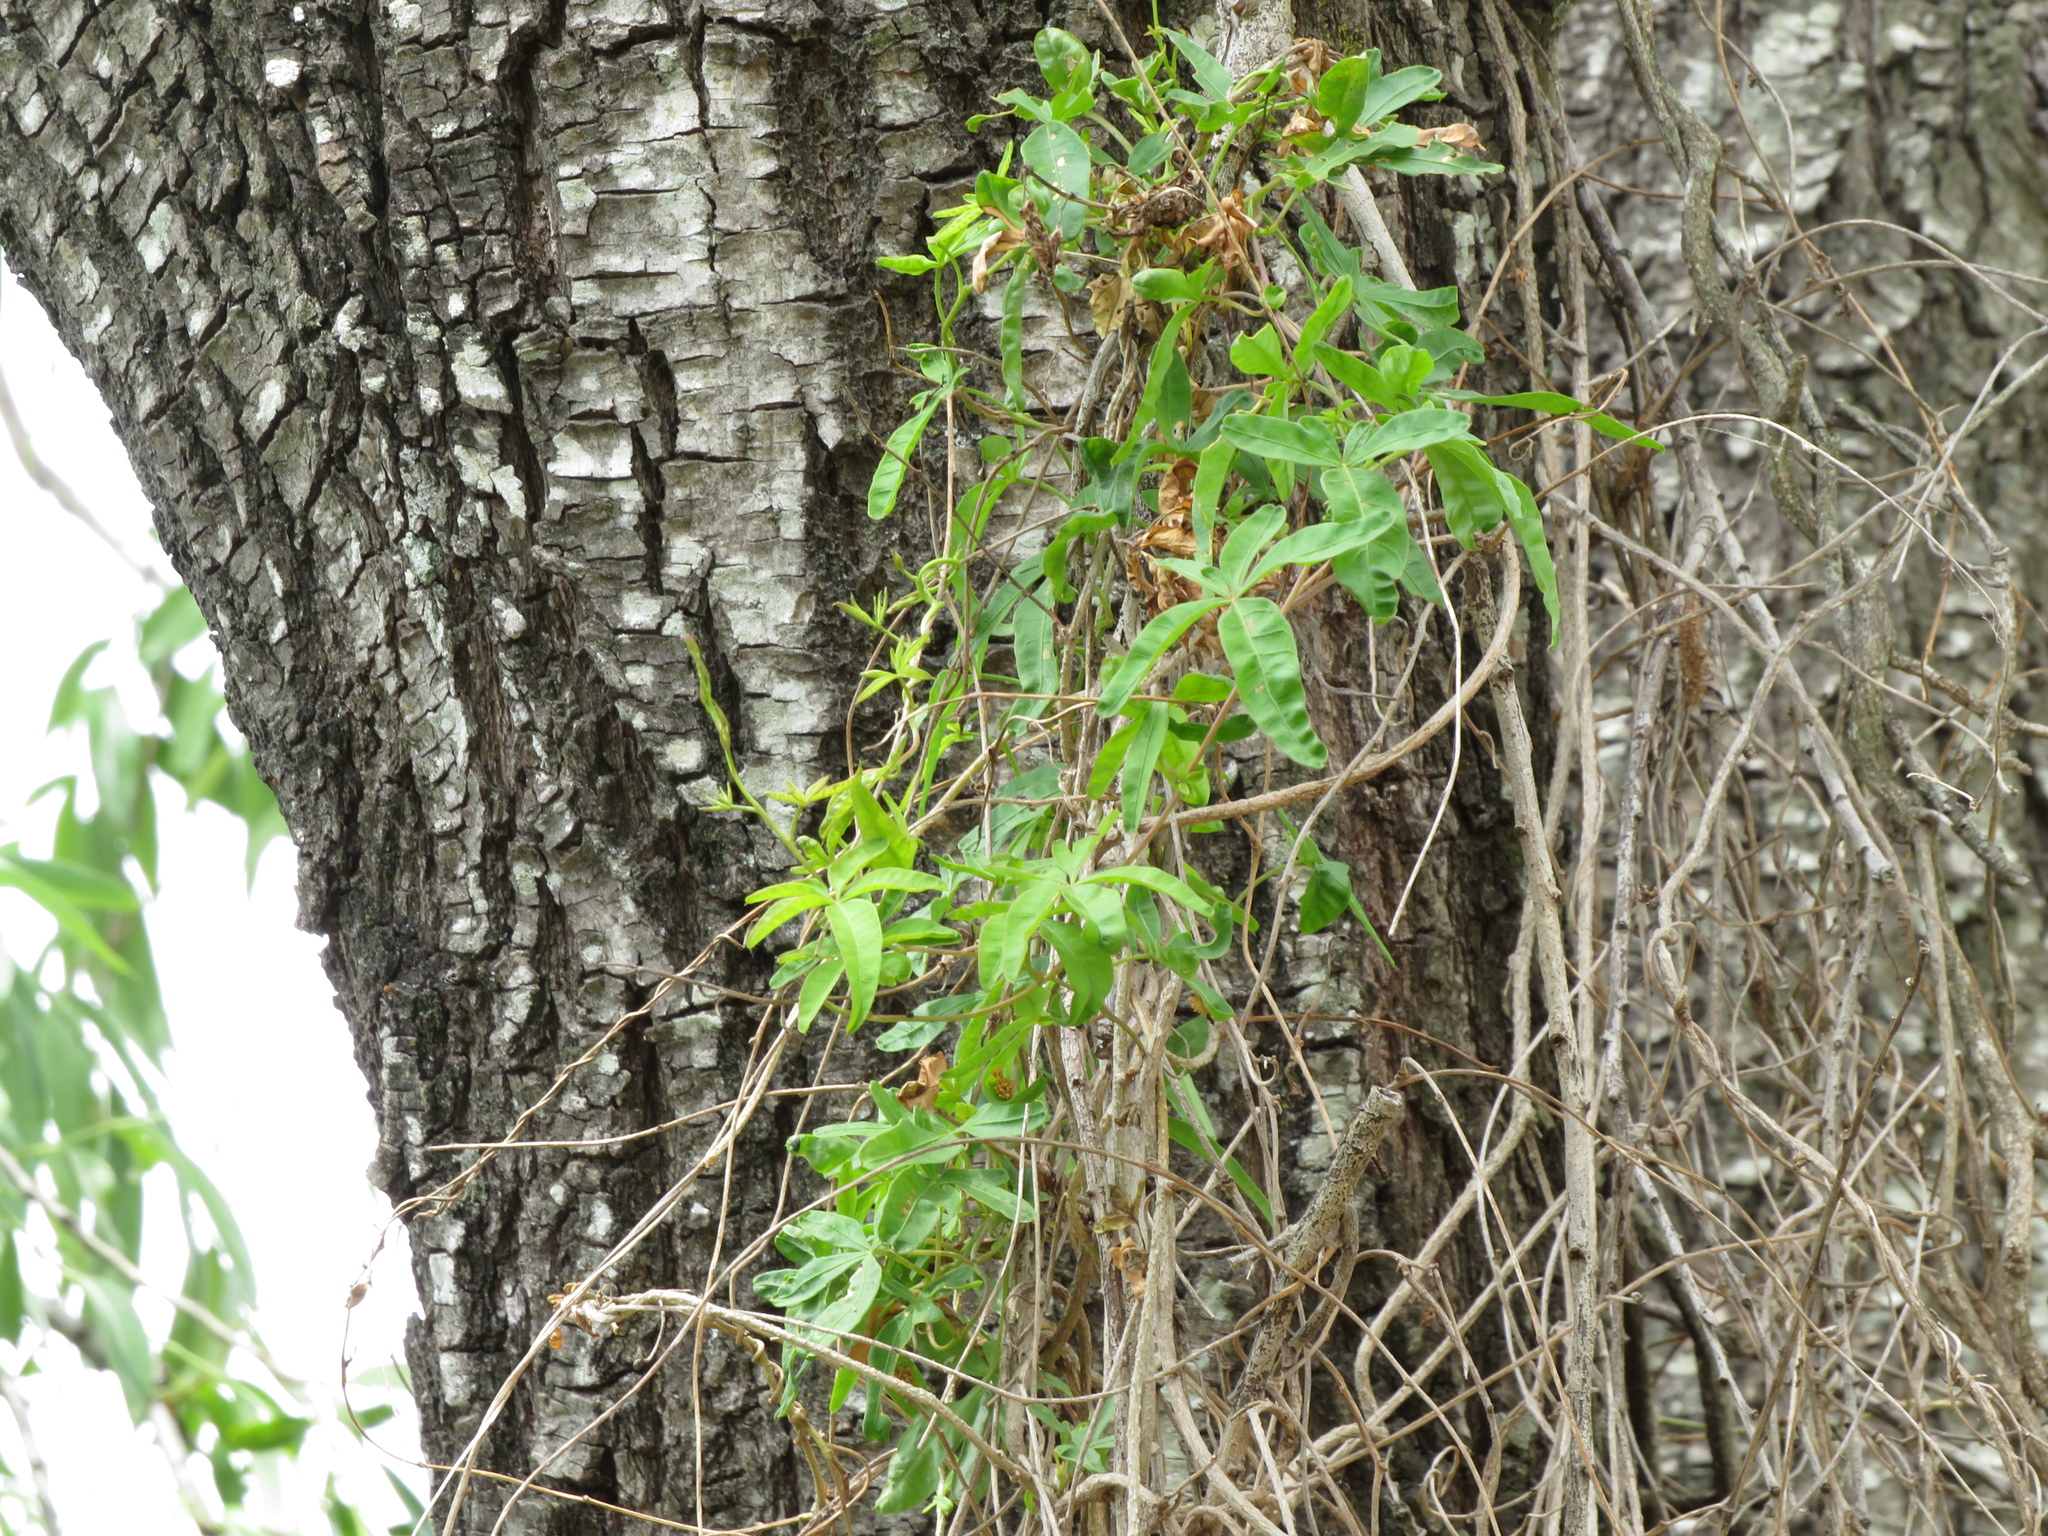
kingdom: Plantae
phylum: Tracheophyta
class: Magnoliopsida
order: Solanales
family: Convolvulaceae
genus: Ipomoea
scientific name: Ipomoea cairica
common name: Mile a minute vine
